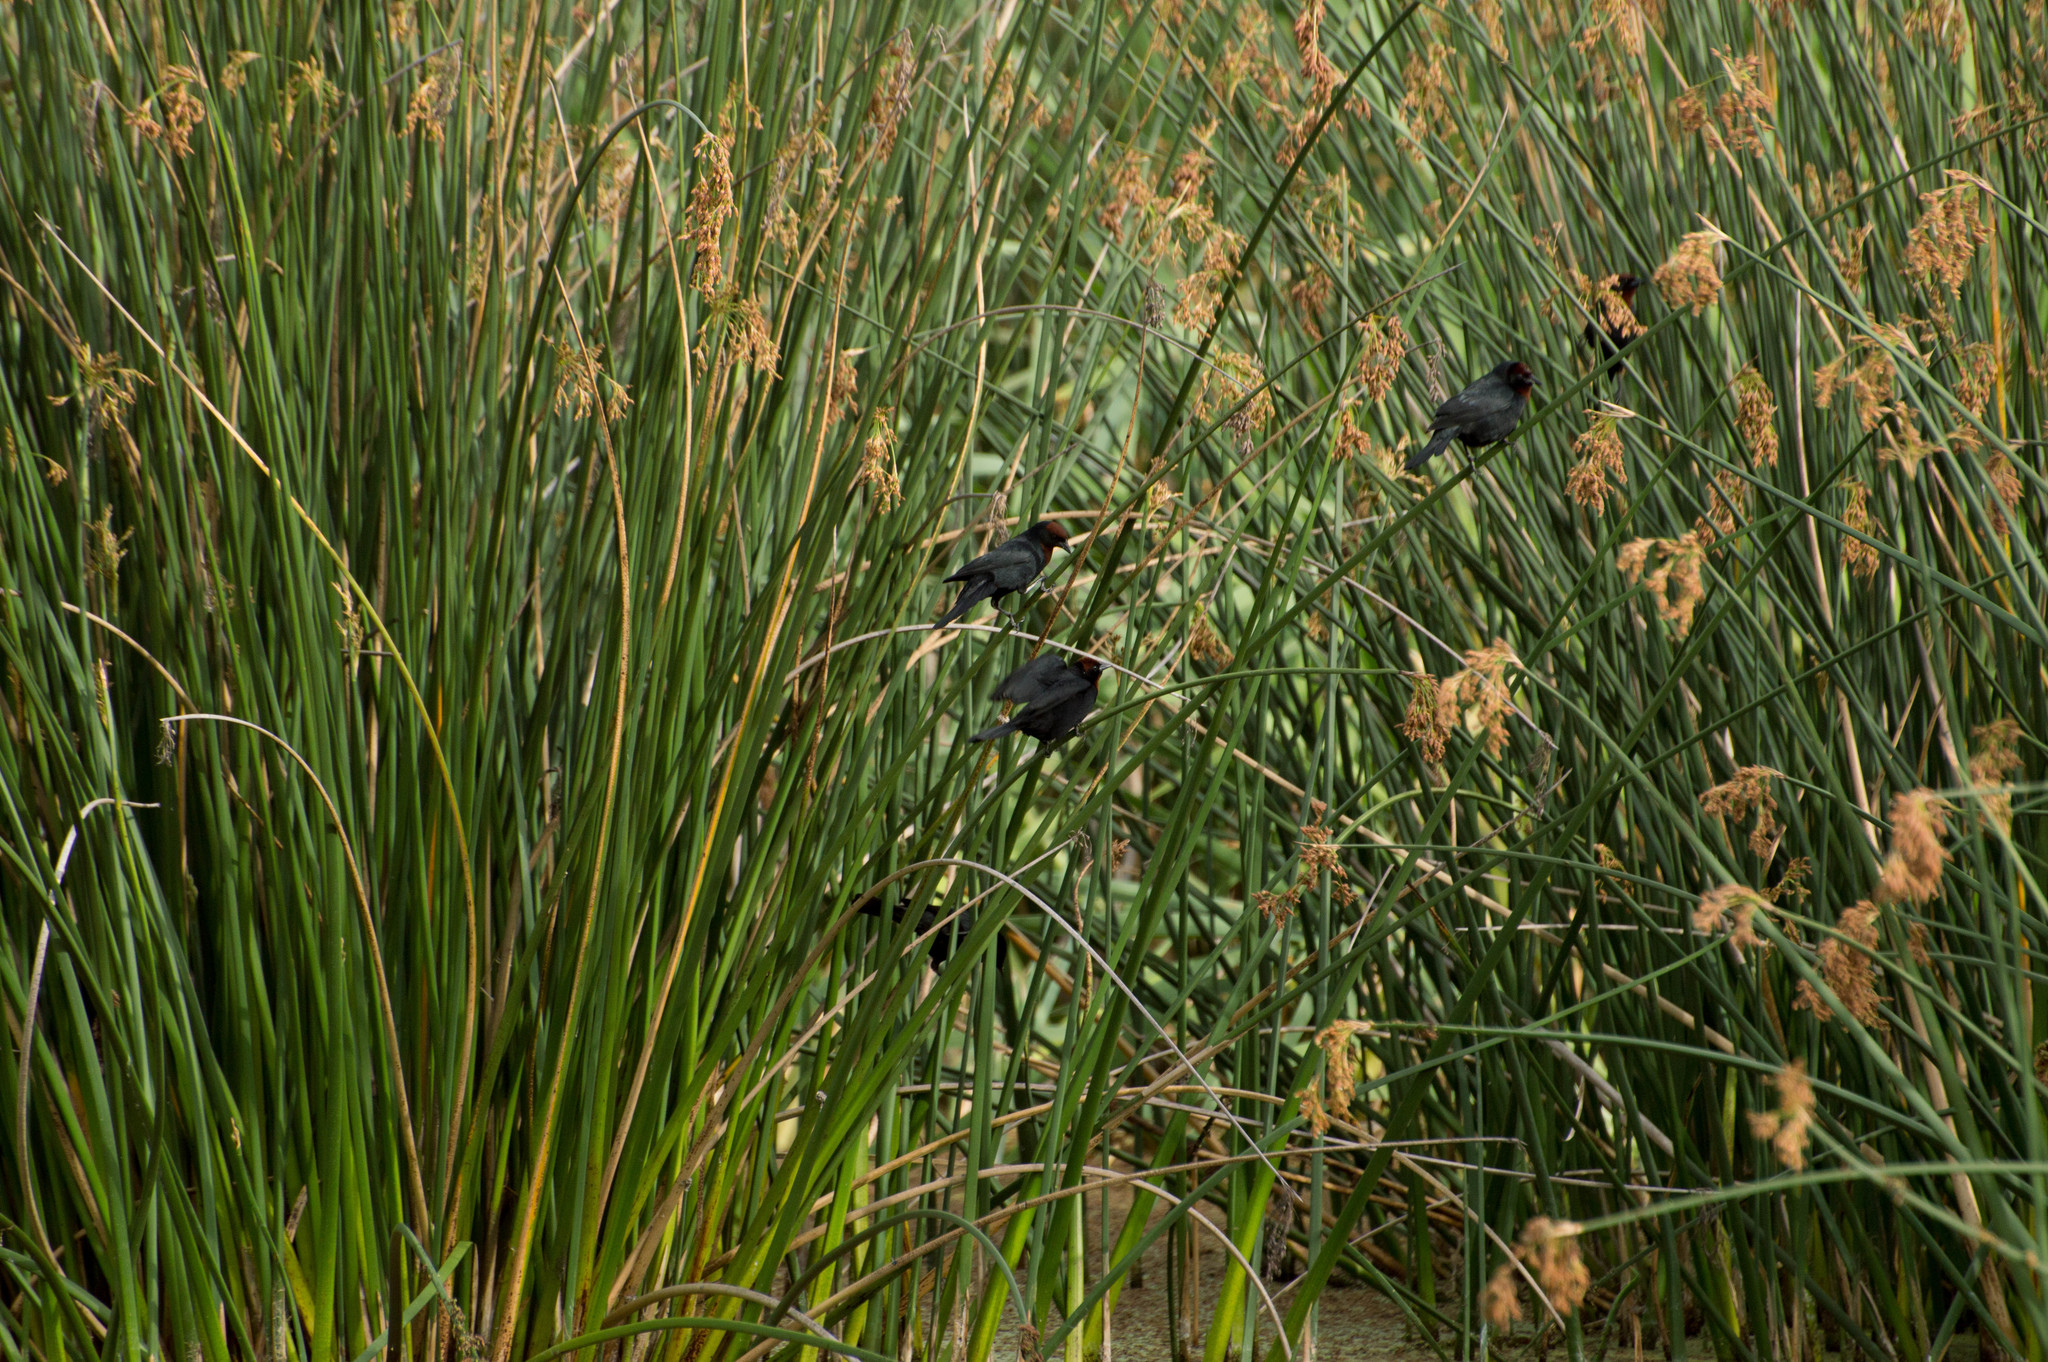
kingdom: Animalia
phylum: Chordata
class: Aves
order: Passeriformes
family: Icteridae
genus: Chrysomus
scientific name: Chrysomus ruficapillus
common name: Chestnut-capped blackbird
